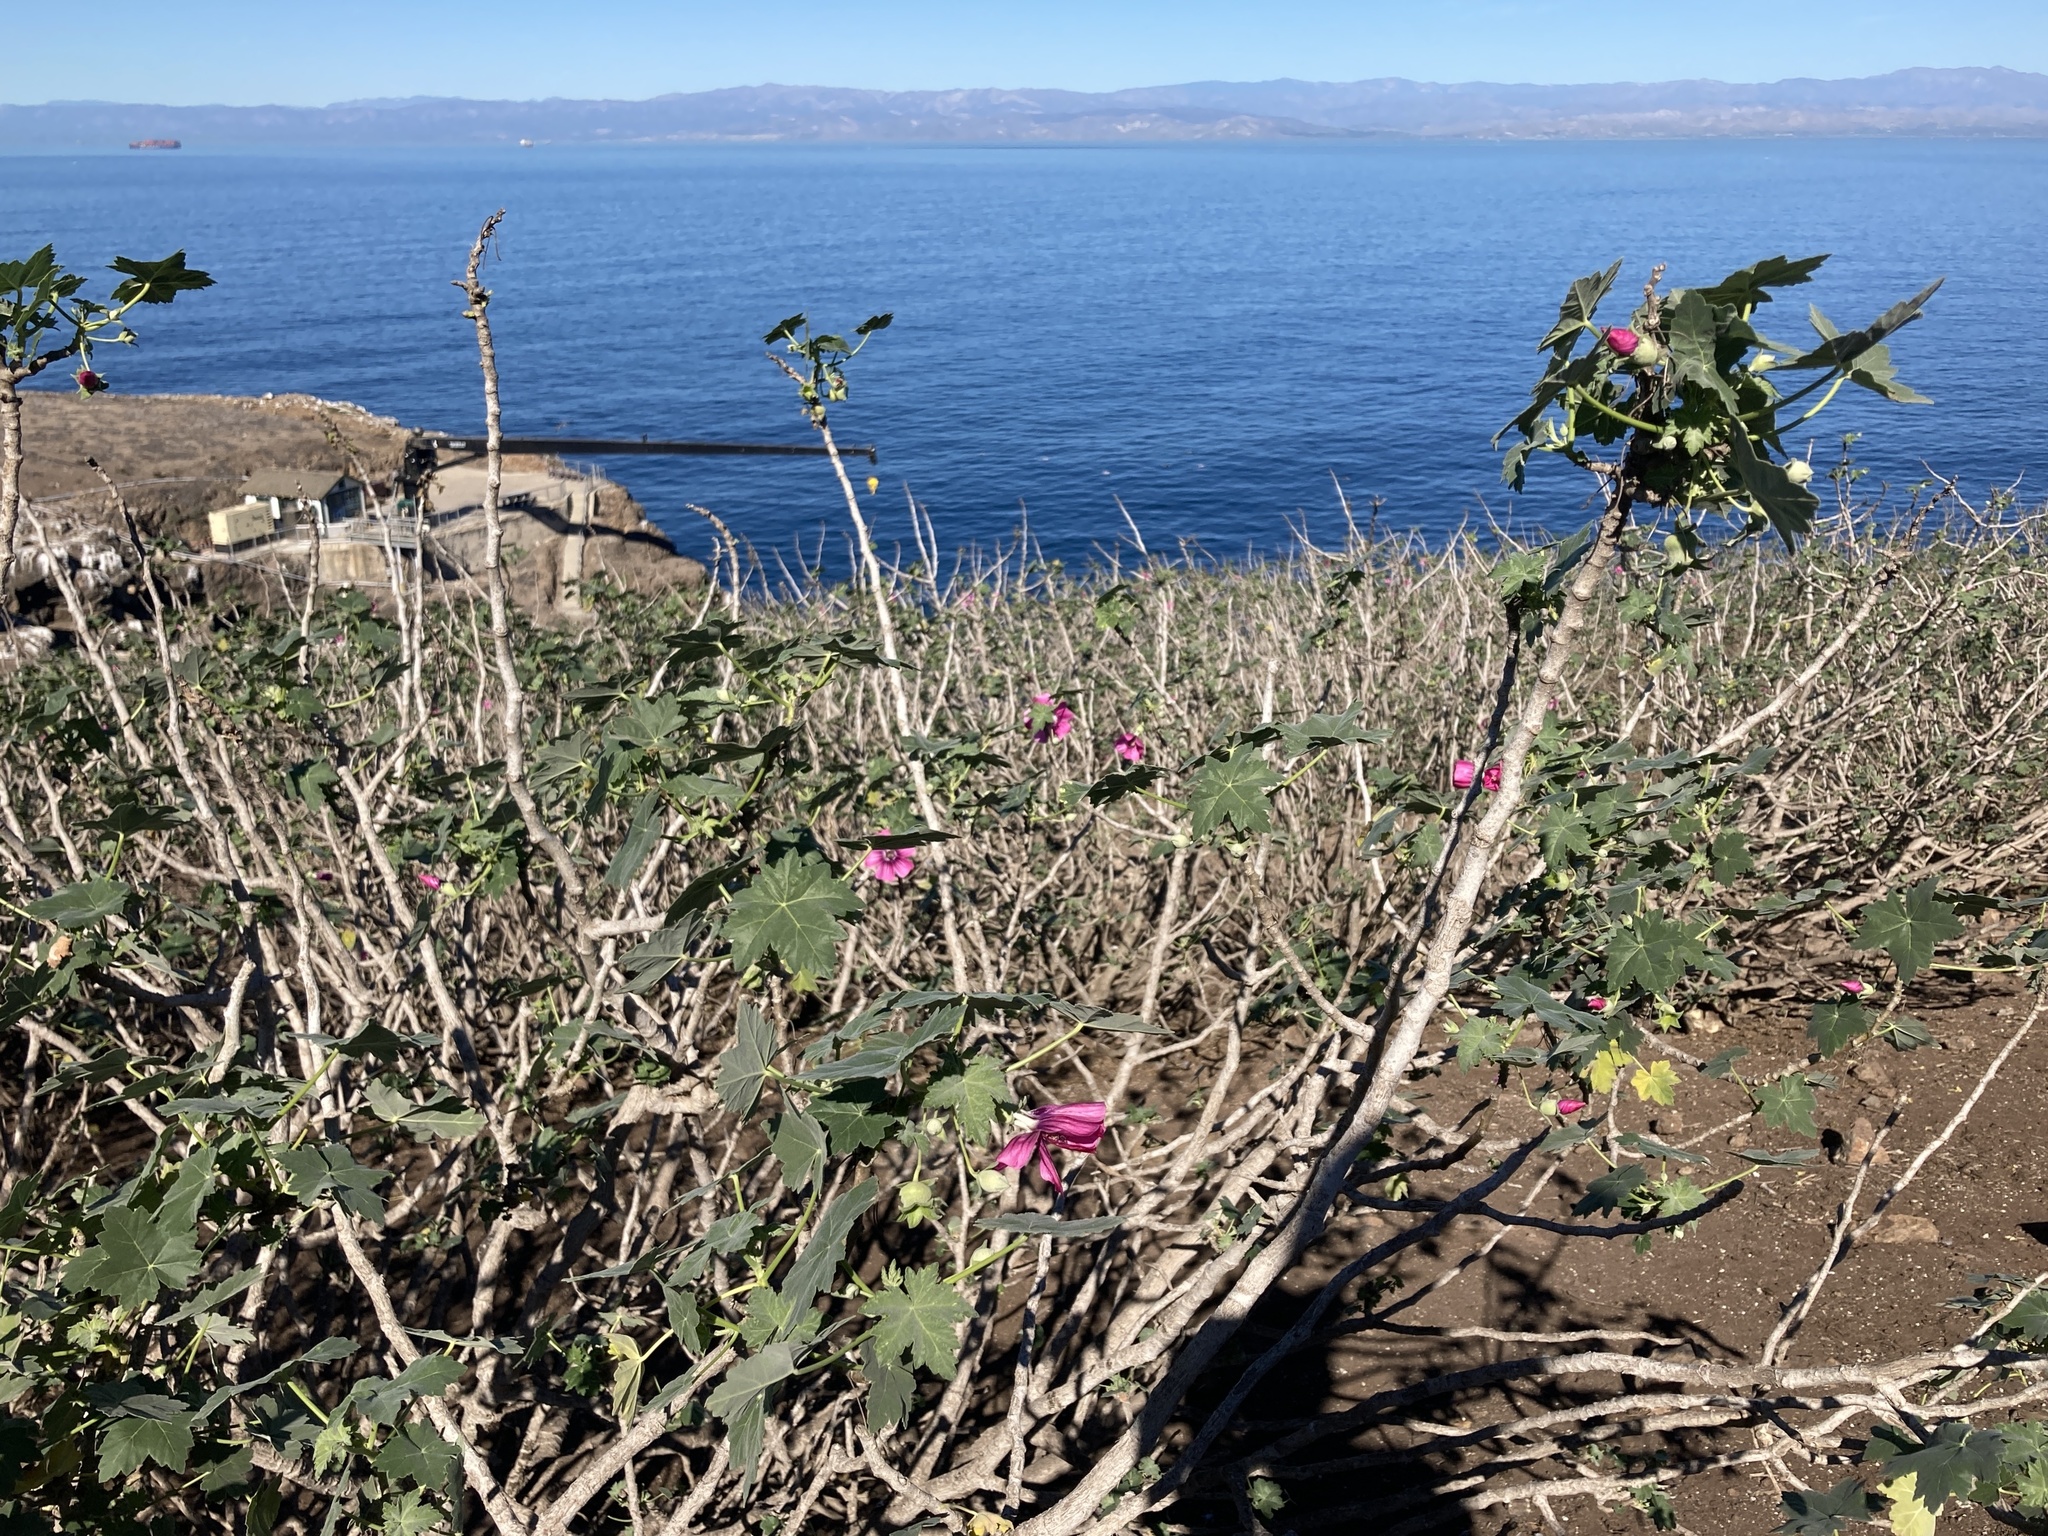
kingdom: Plantae
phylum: Tracheophyta
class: Magnoliopsida
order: Malvales
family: Malvaceae
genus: Malva
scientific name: Malva assurgentiflora
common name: Island mallow
